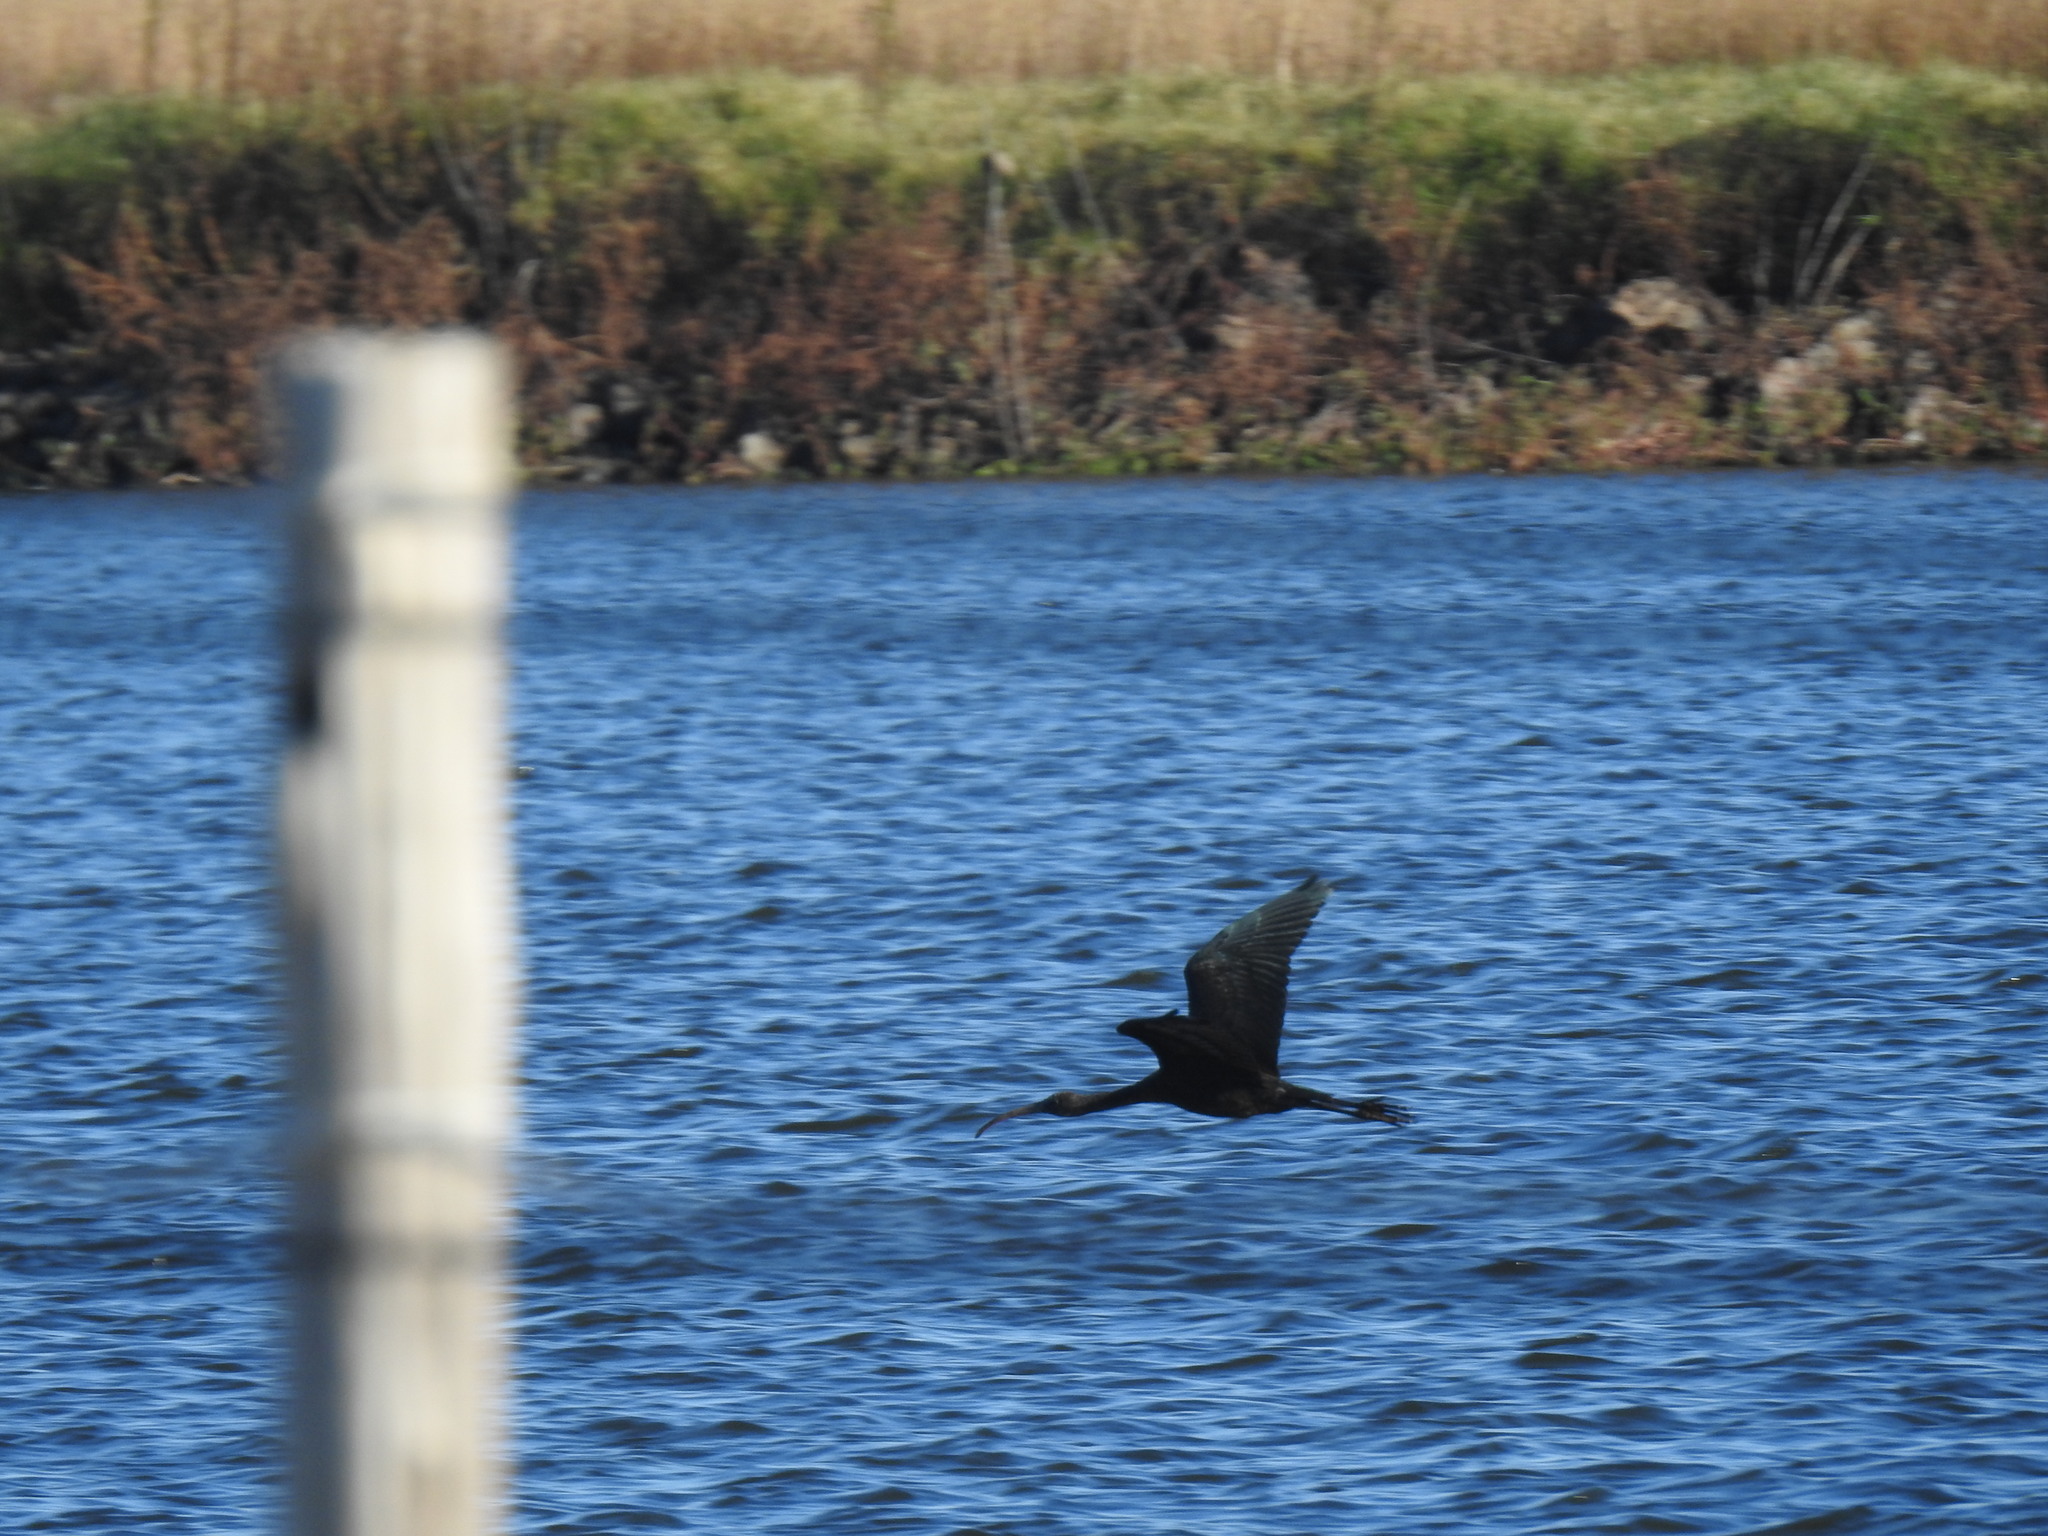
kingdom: Animalia
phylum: Chordata
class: Aves
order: Pelecaniformes
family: Threskiornithidae
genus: Plegadis
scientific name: Plegadis falcinellus
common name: Glossy ibis
